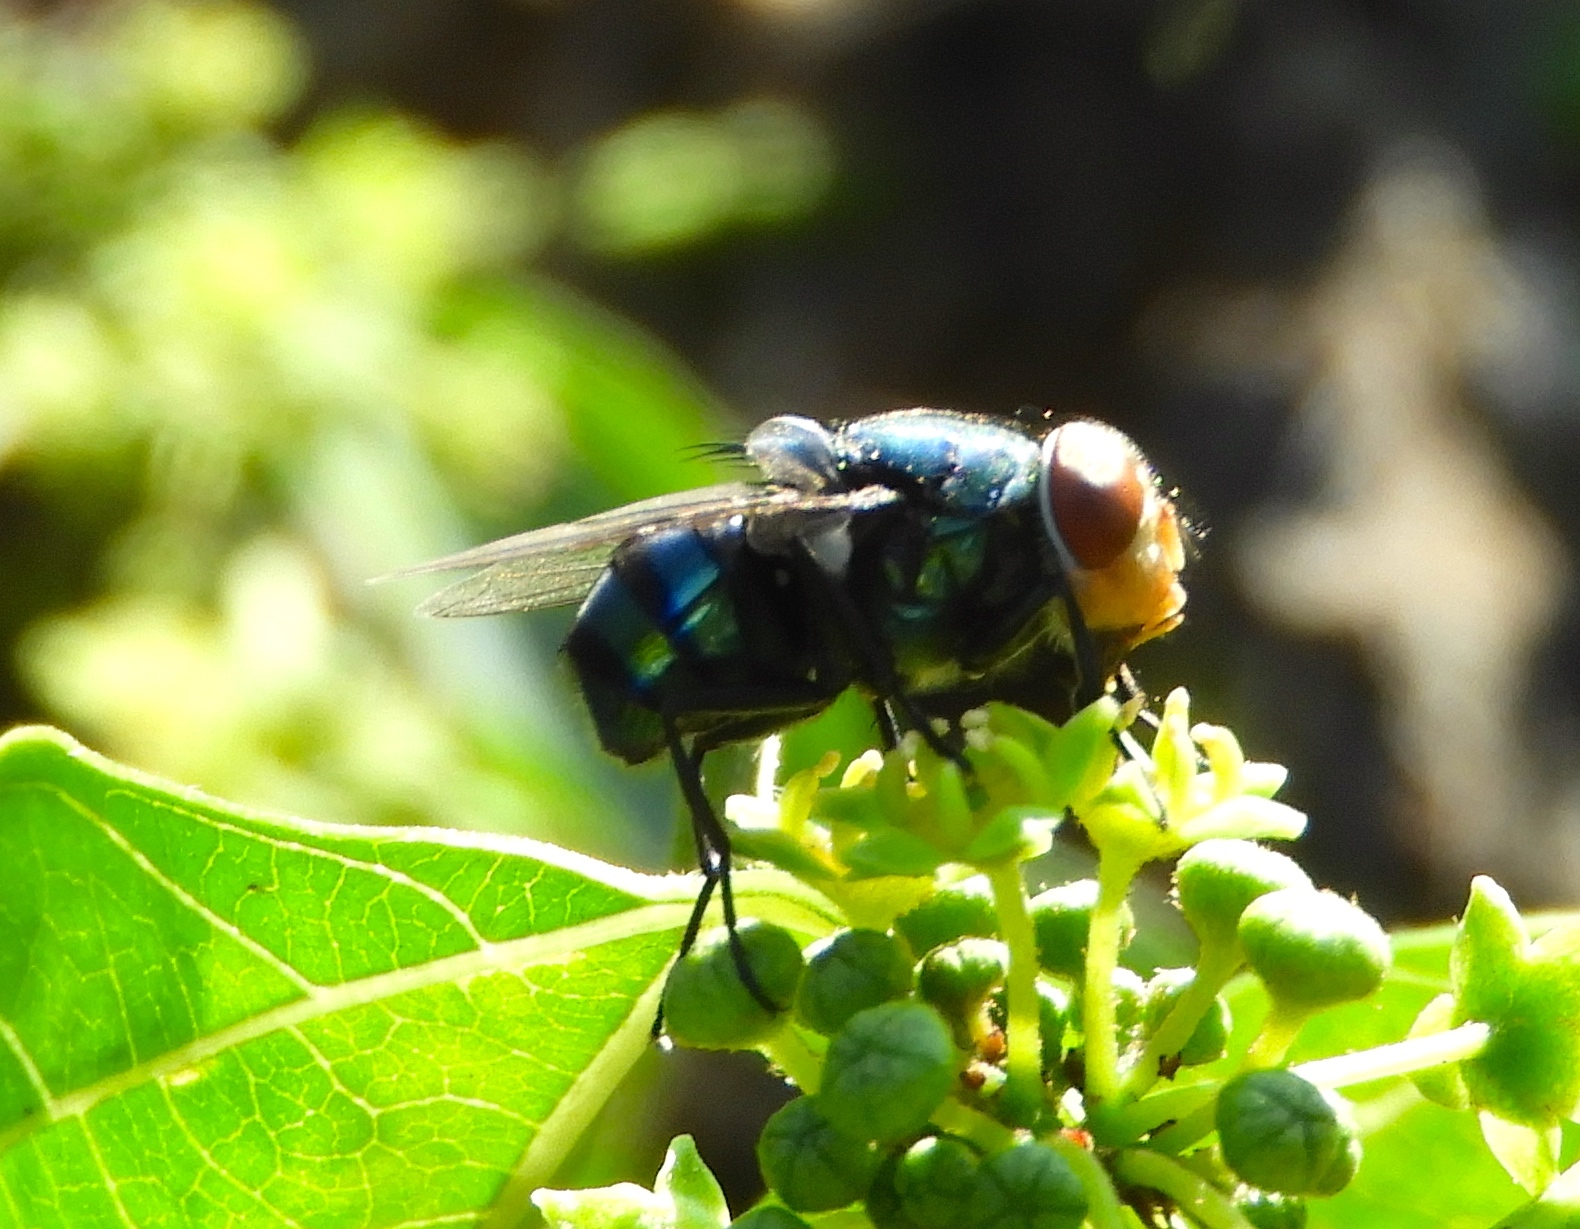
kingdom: Animalia
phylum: Arthropoda
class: Insecta
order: Diptera
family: Calliphoridae
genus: Chrysomya
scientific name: Chrysomya megacephala
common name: Blow fly
